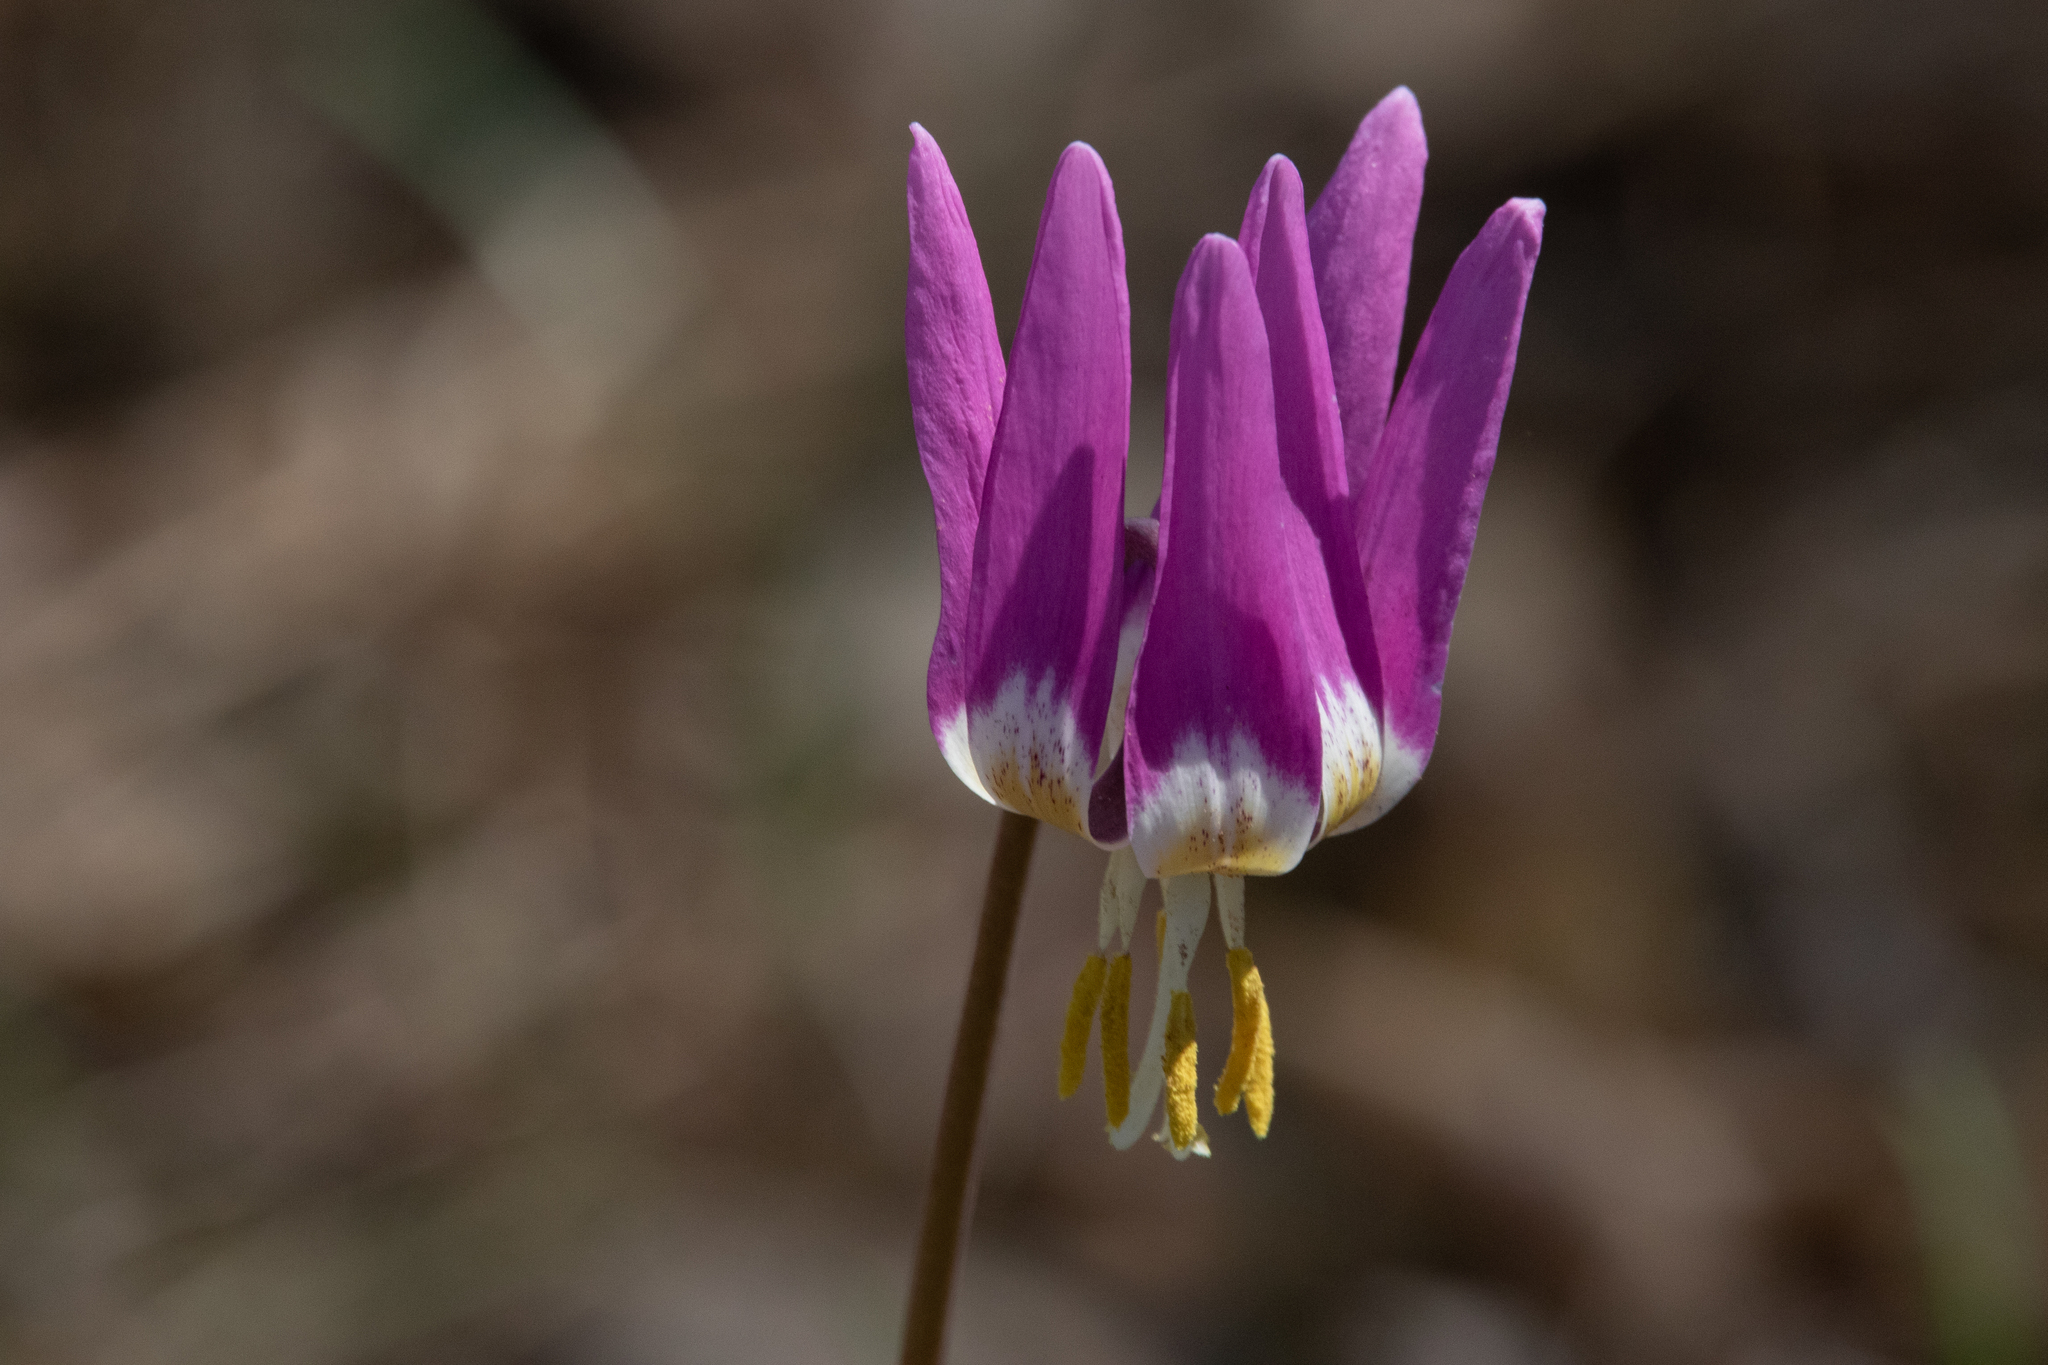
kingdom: Plantae
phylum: Tracheophyta
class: Liliopsida
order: Liliales
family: Liliaceae
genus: Erythronium
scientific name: Erythronium sibiricum
